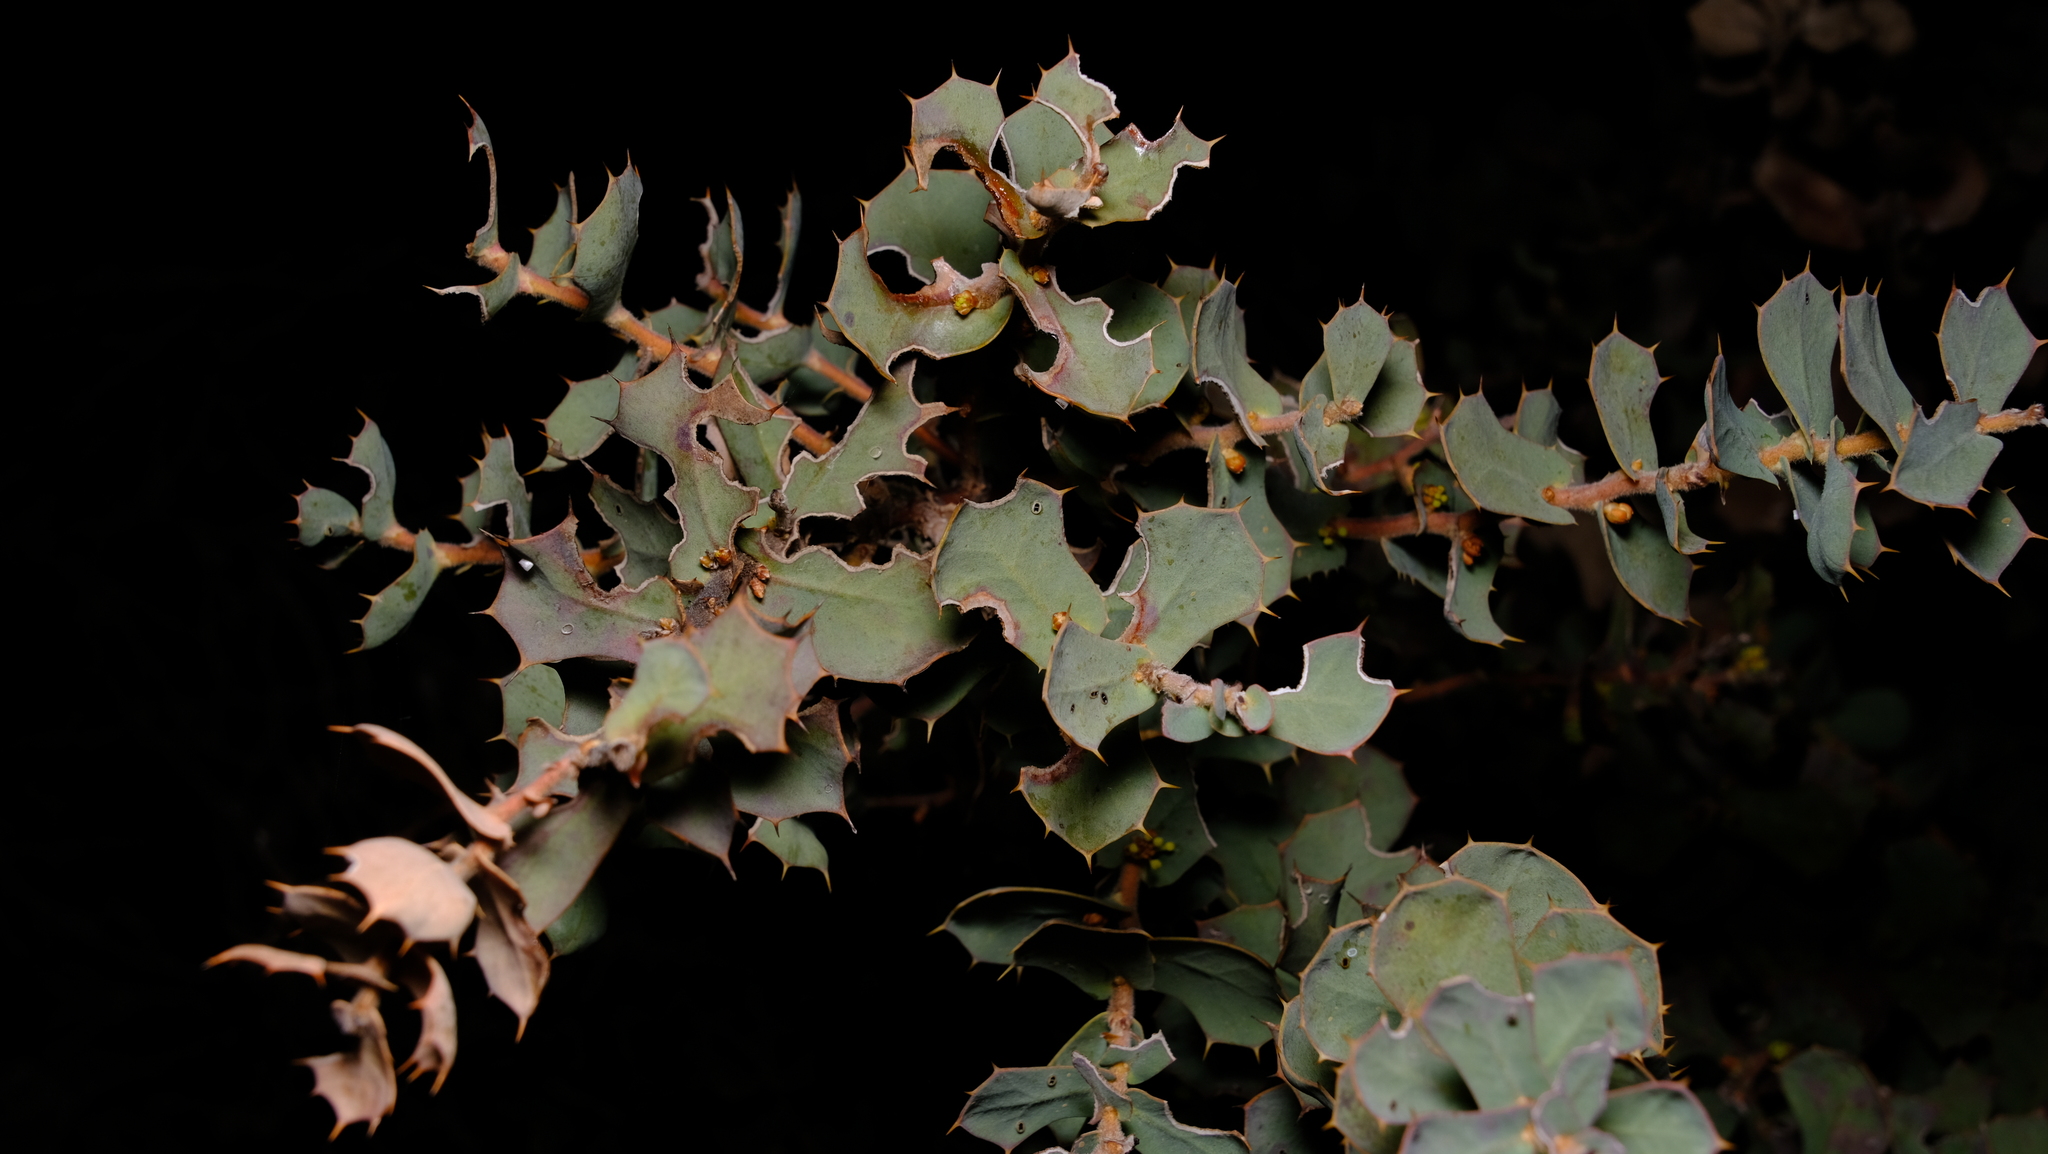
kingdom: Plantae
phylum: Tracheophyta
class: Magnoliopsida
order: Proteales
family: Proteaceae
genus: Hakea
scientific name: Hakea prostrata
